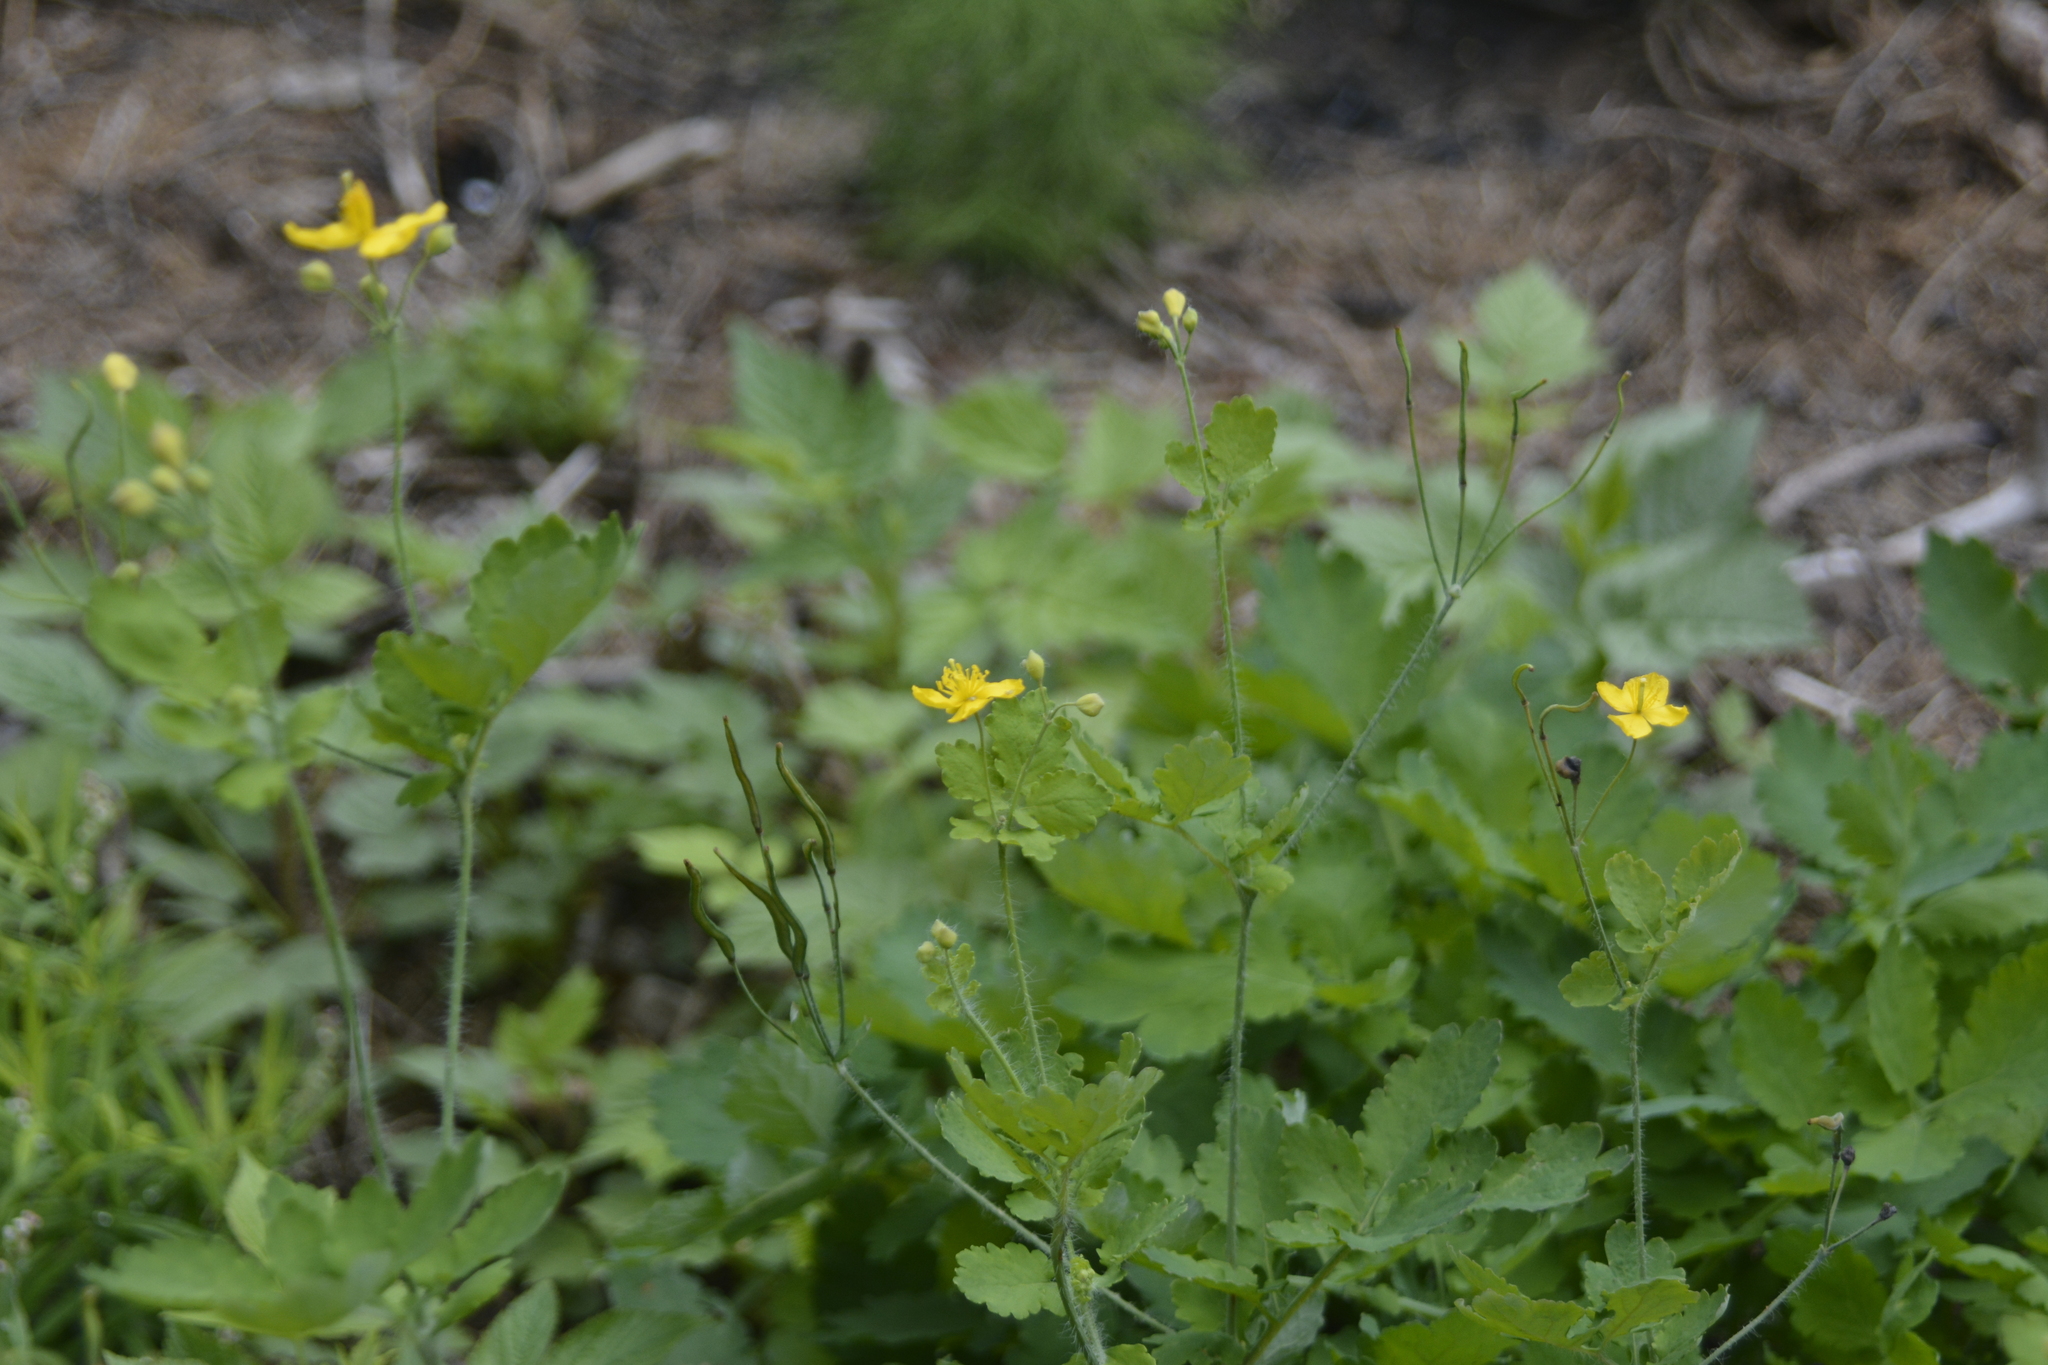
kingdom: Plantae
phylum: Tracheophyta
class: Magnoliopsida
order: Ranunculales
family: Papaveraceae
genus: Chelidonium
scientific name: Chelidonium majus
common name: Greater celandine
